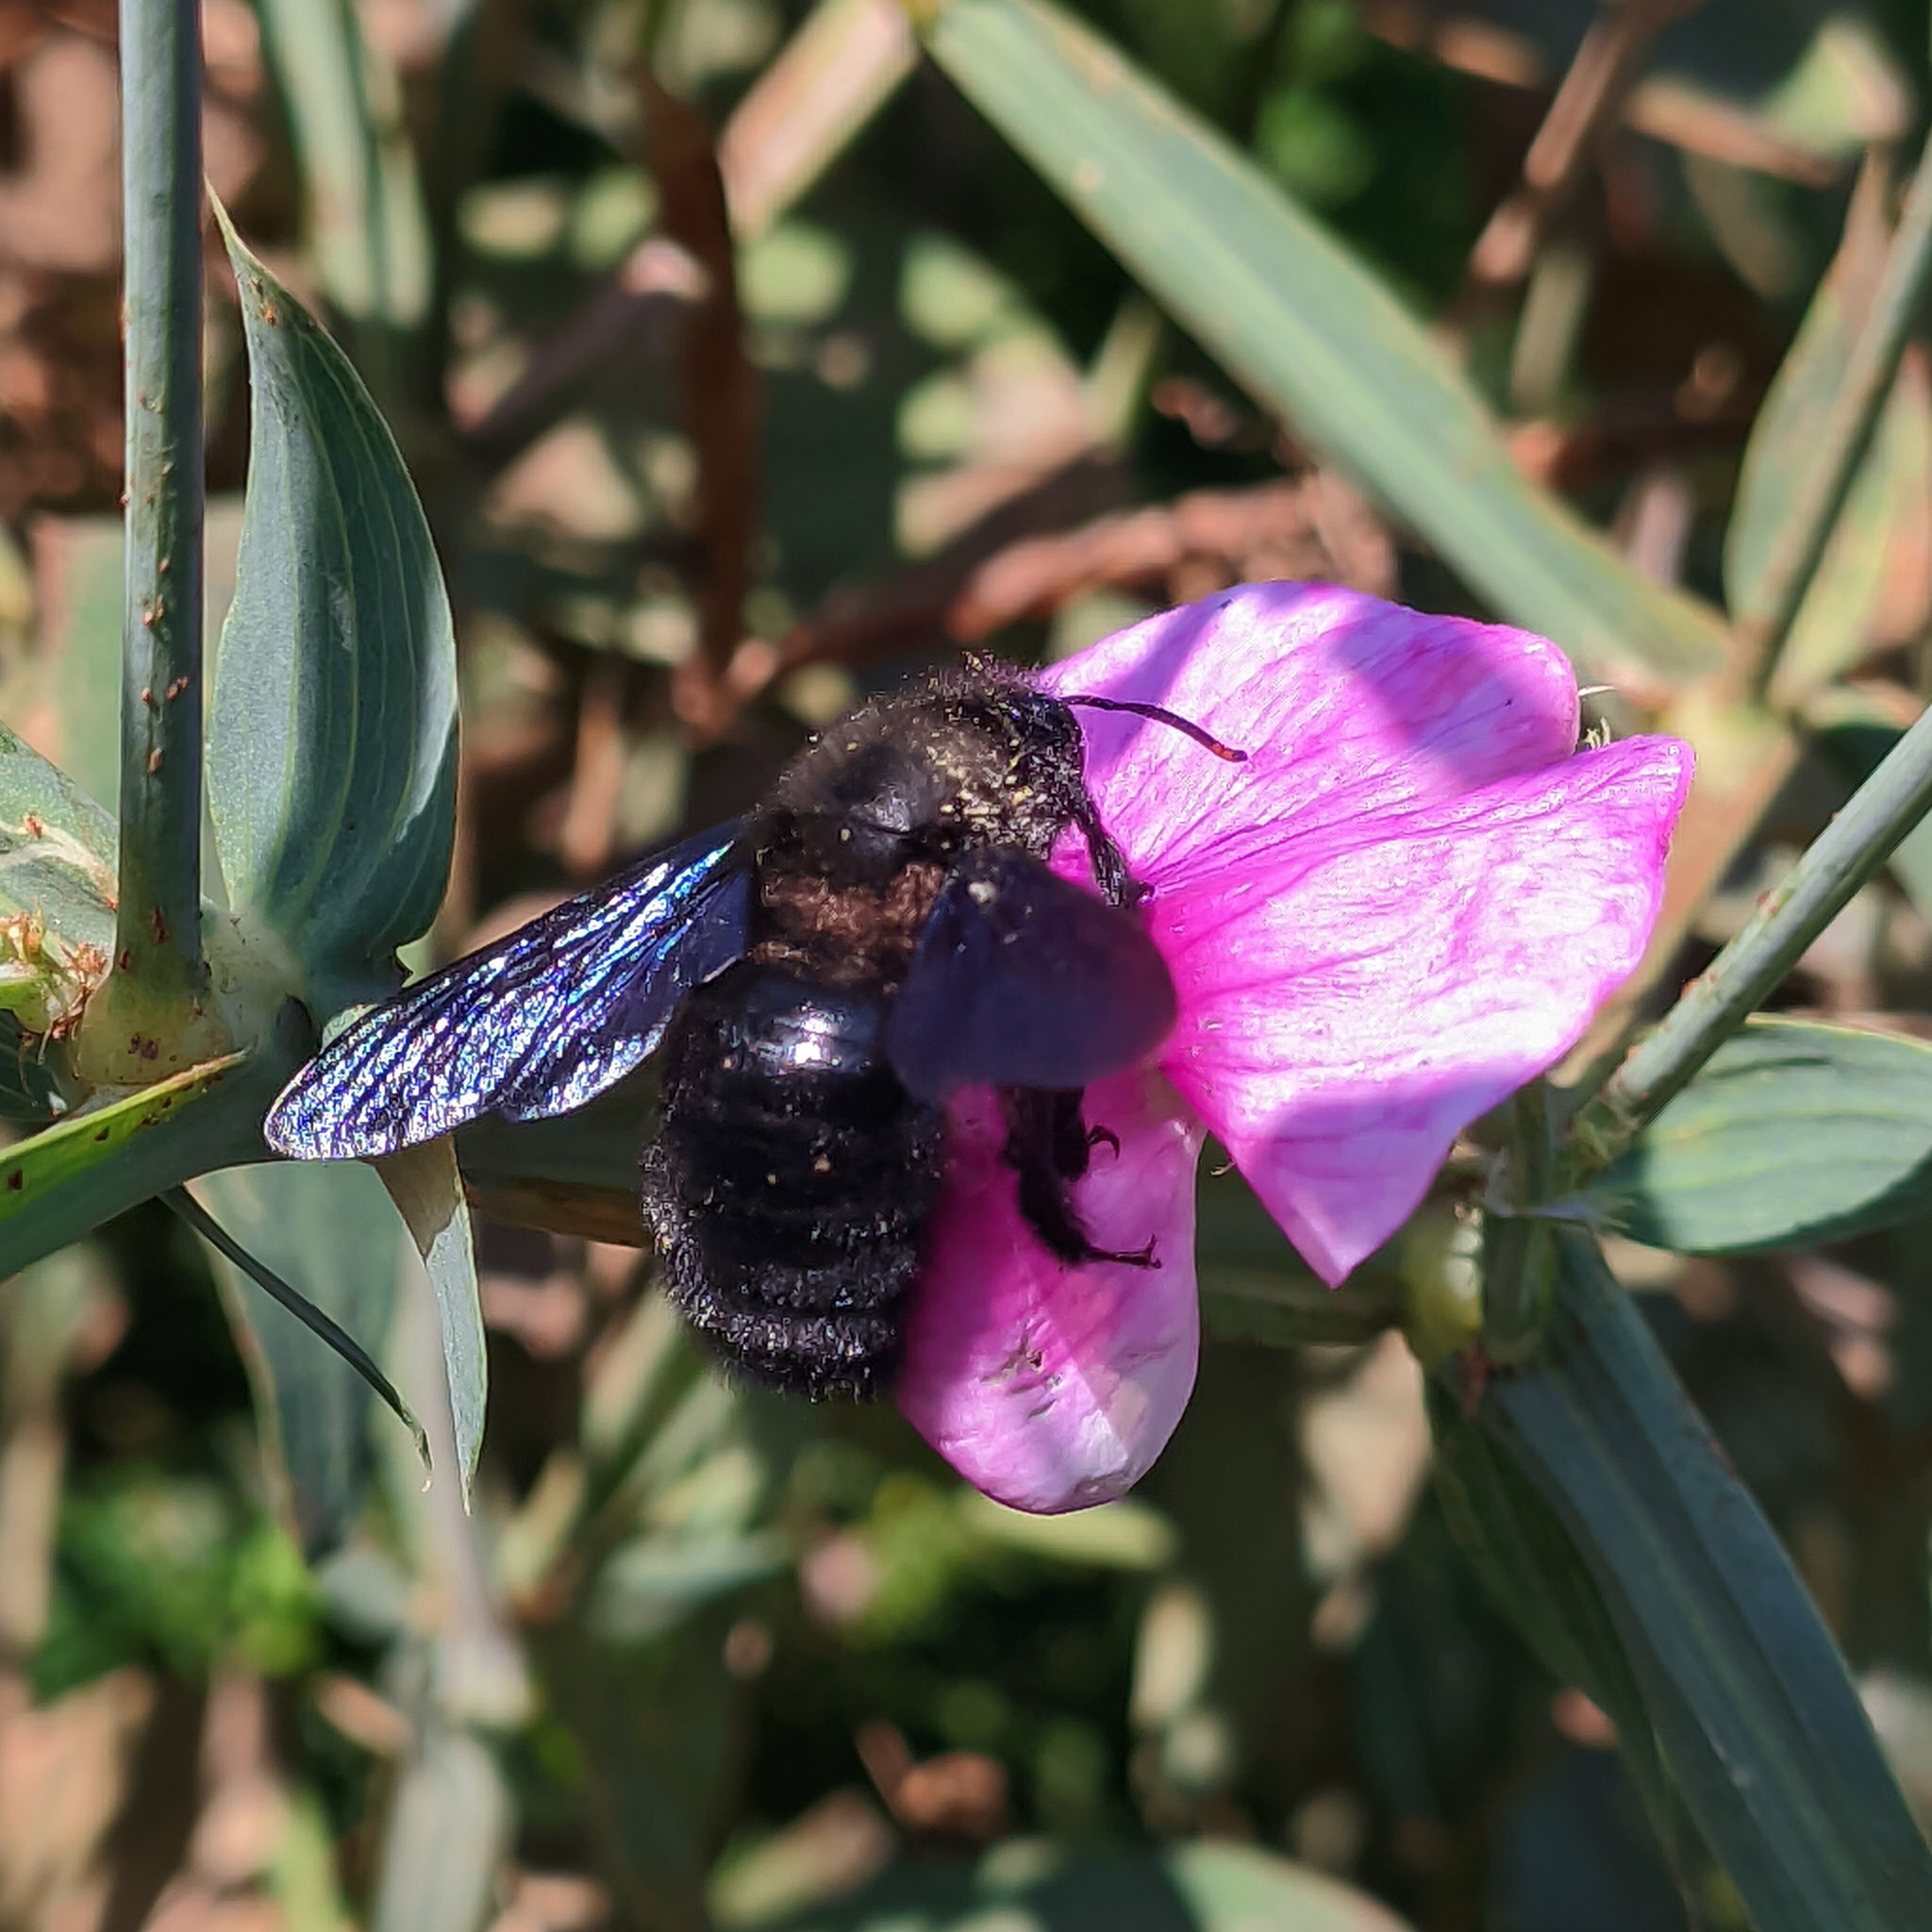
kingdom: Animalia
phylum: Arthropoda
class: Insecta
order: Hymenoptera
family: Apidae
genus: Xylocopa
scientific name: Xylocopa violacea
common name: Violet carpenter bee
